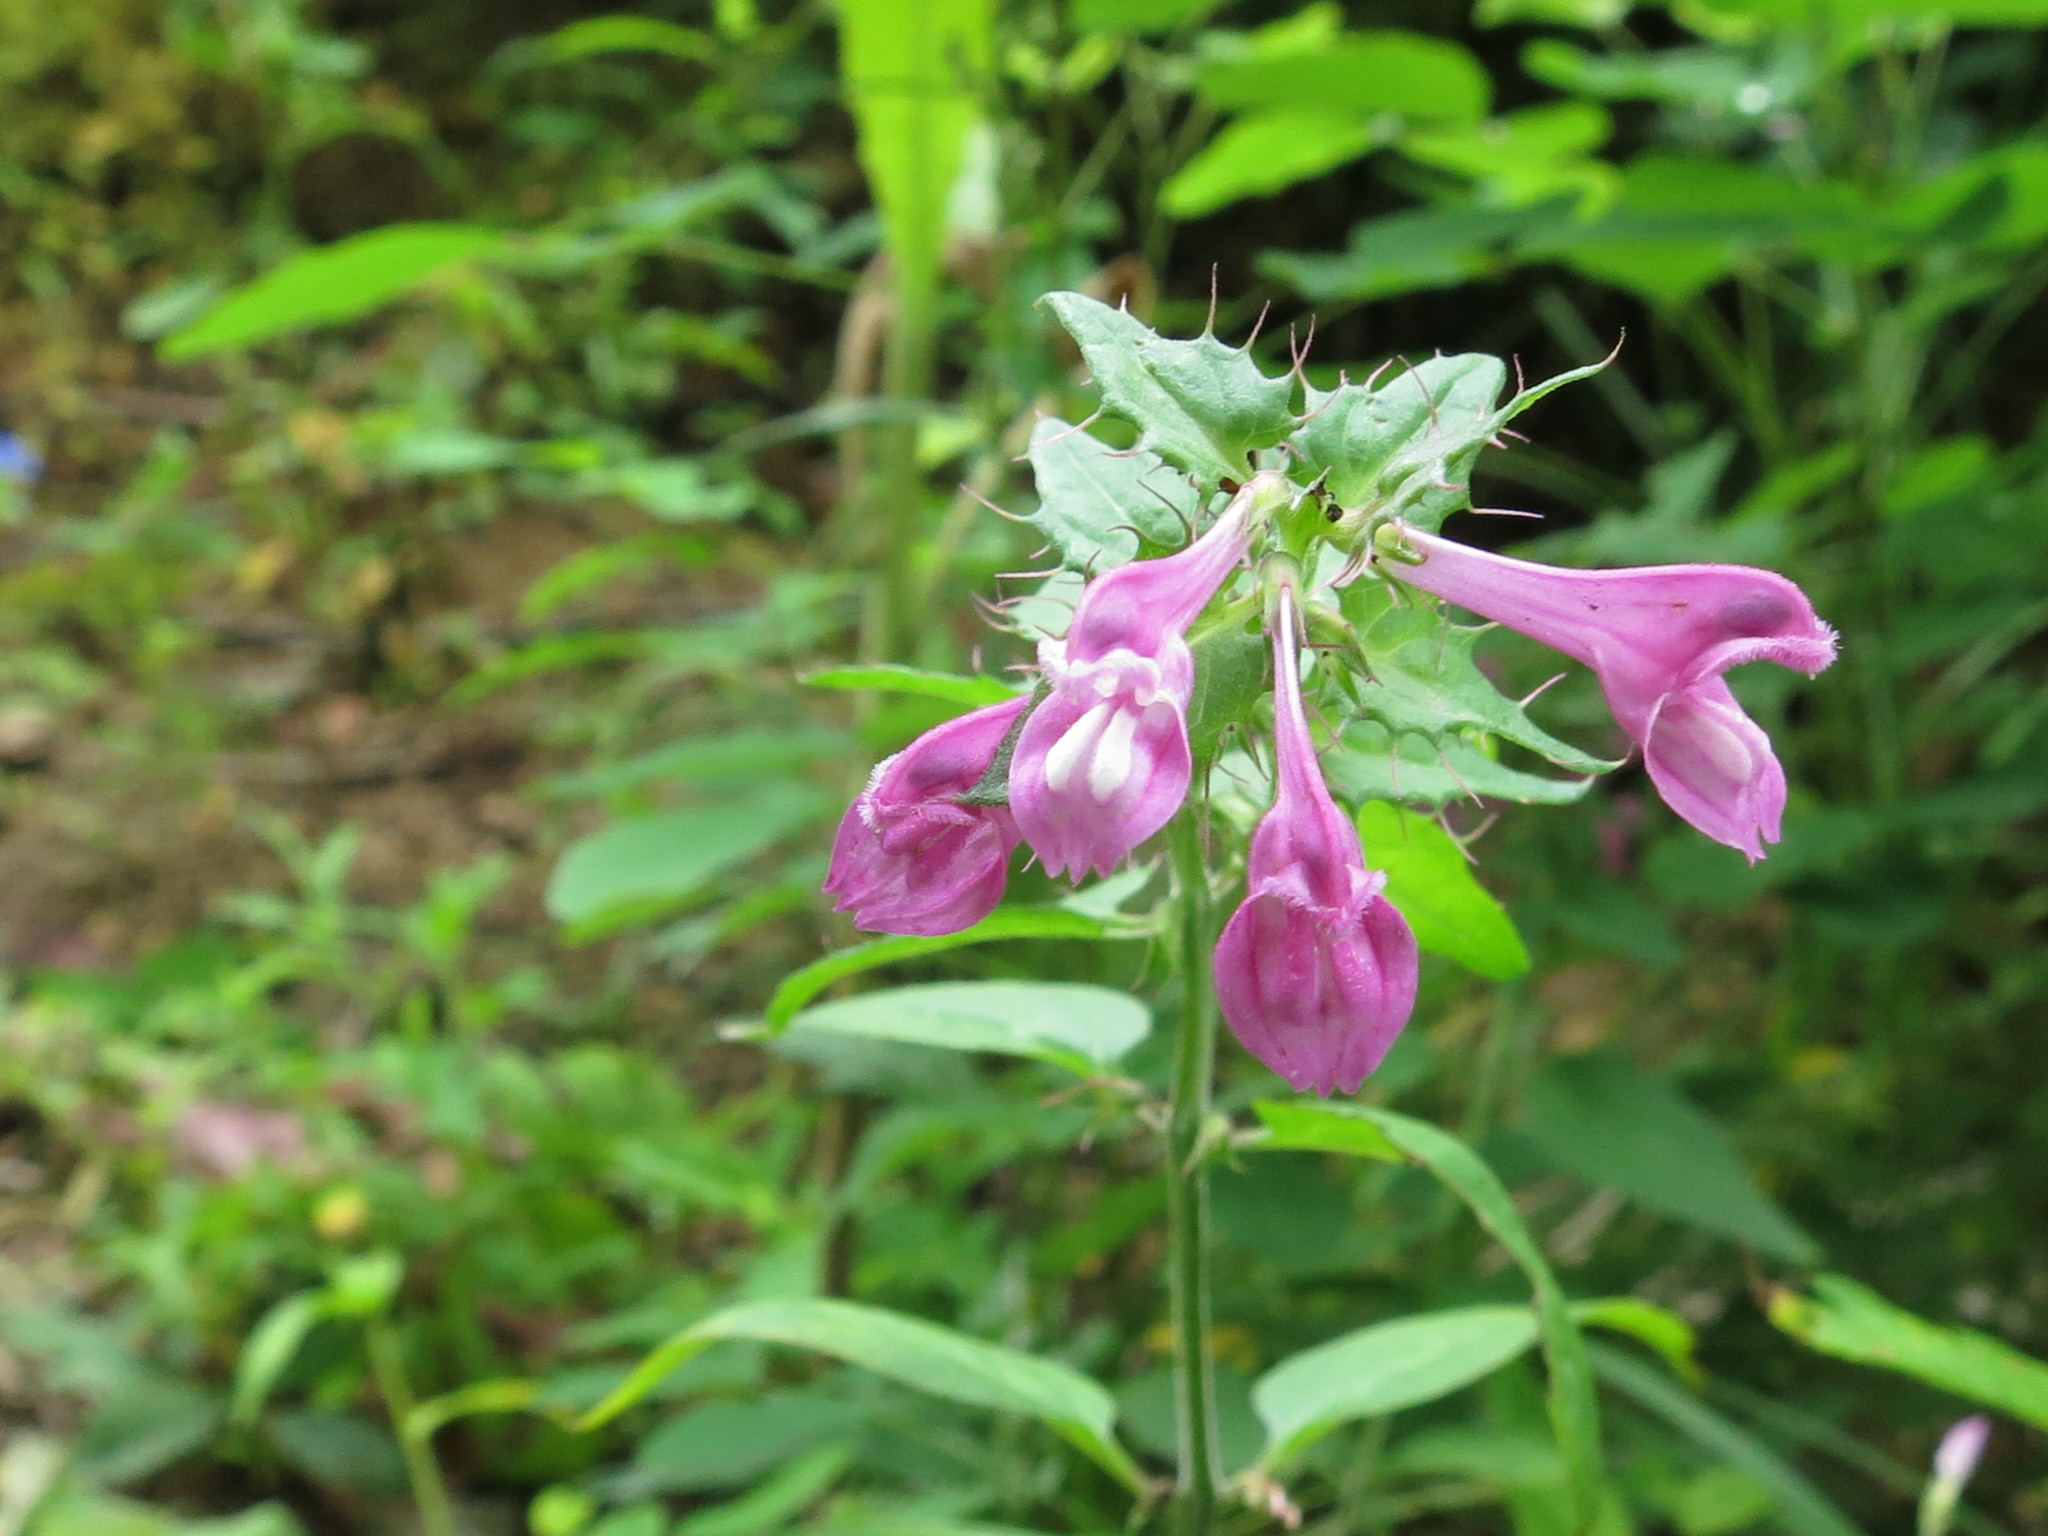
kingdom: Plantae
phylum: Tracheophyta
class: Magnoliopsida
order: Lamiales
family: Orobanchaceae
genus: Melampyrum
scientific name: Melampyrum roseum
